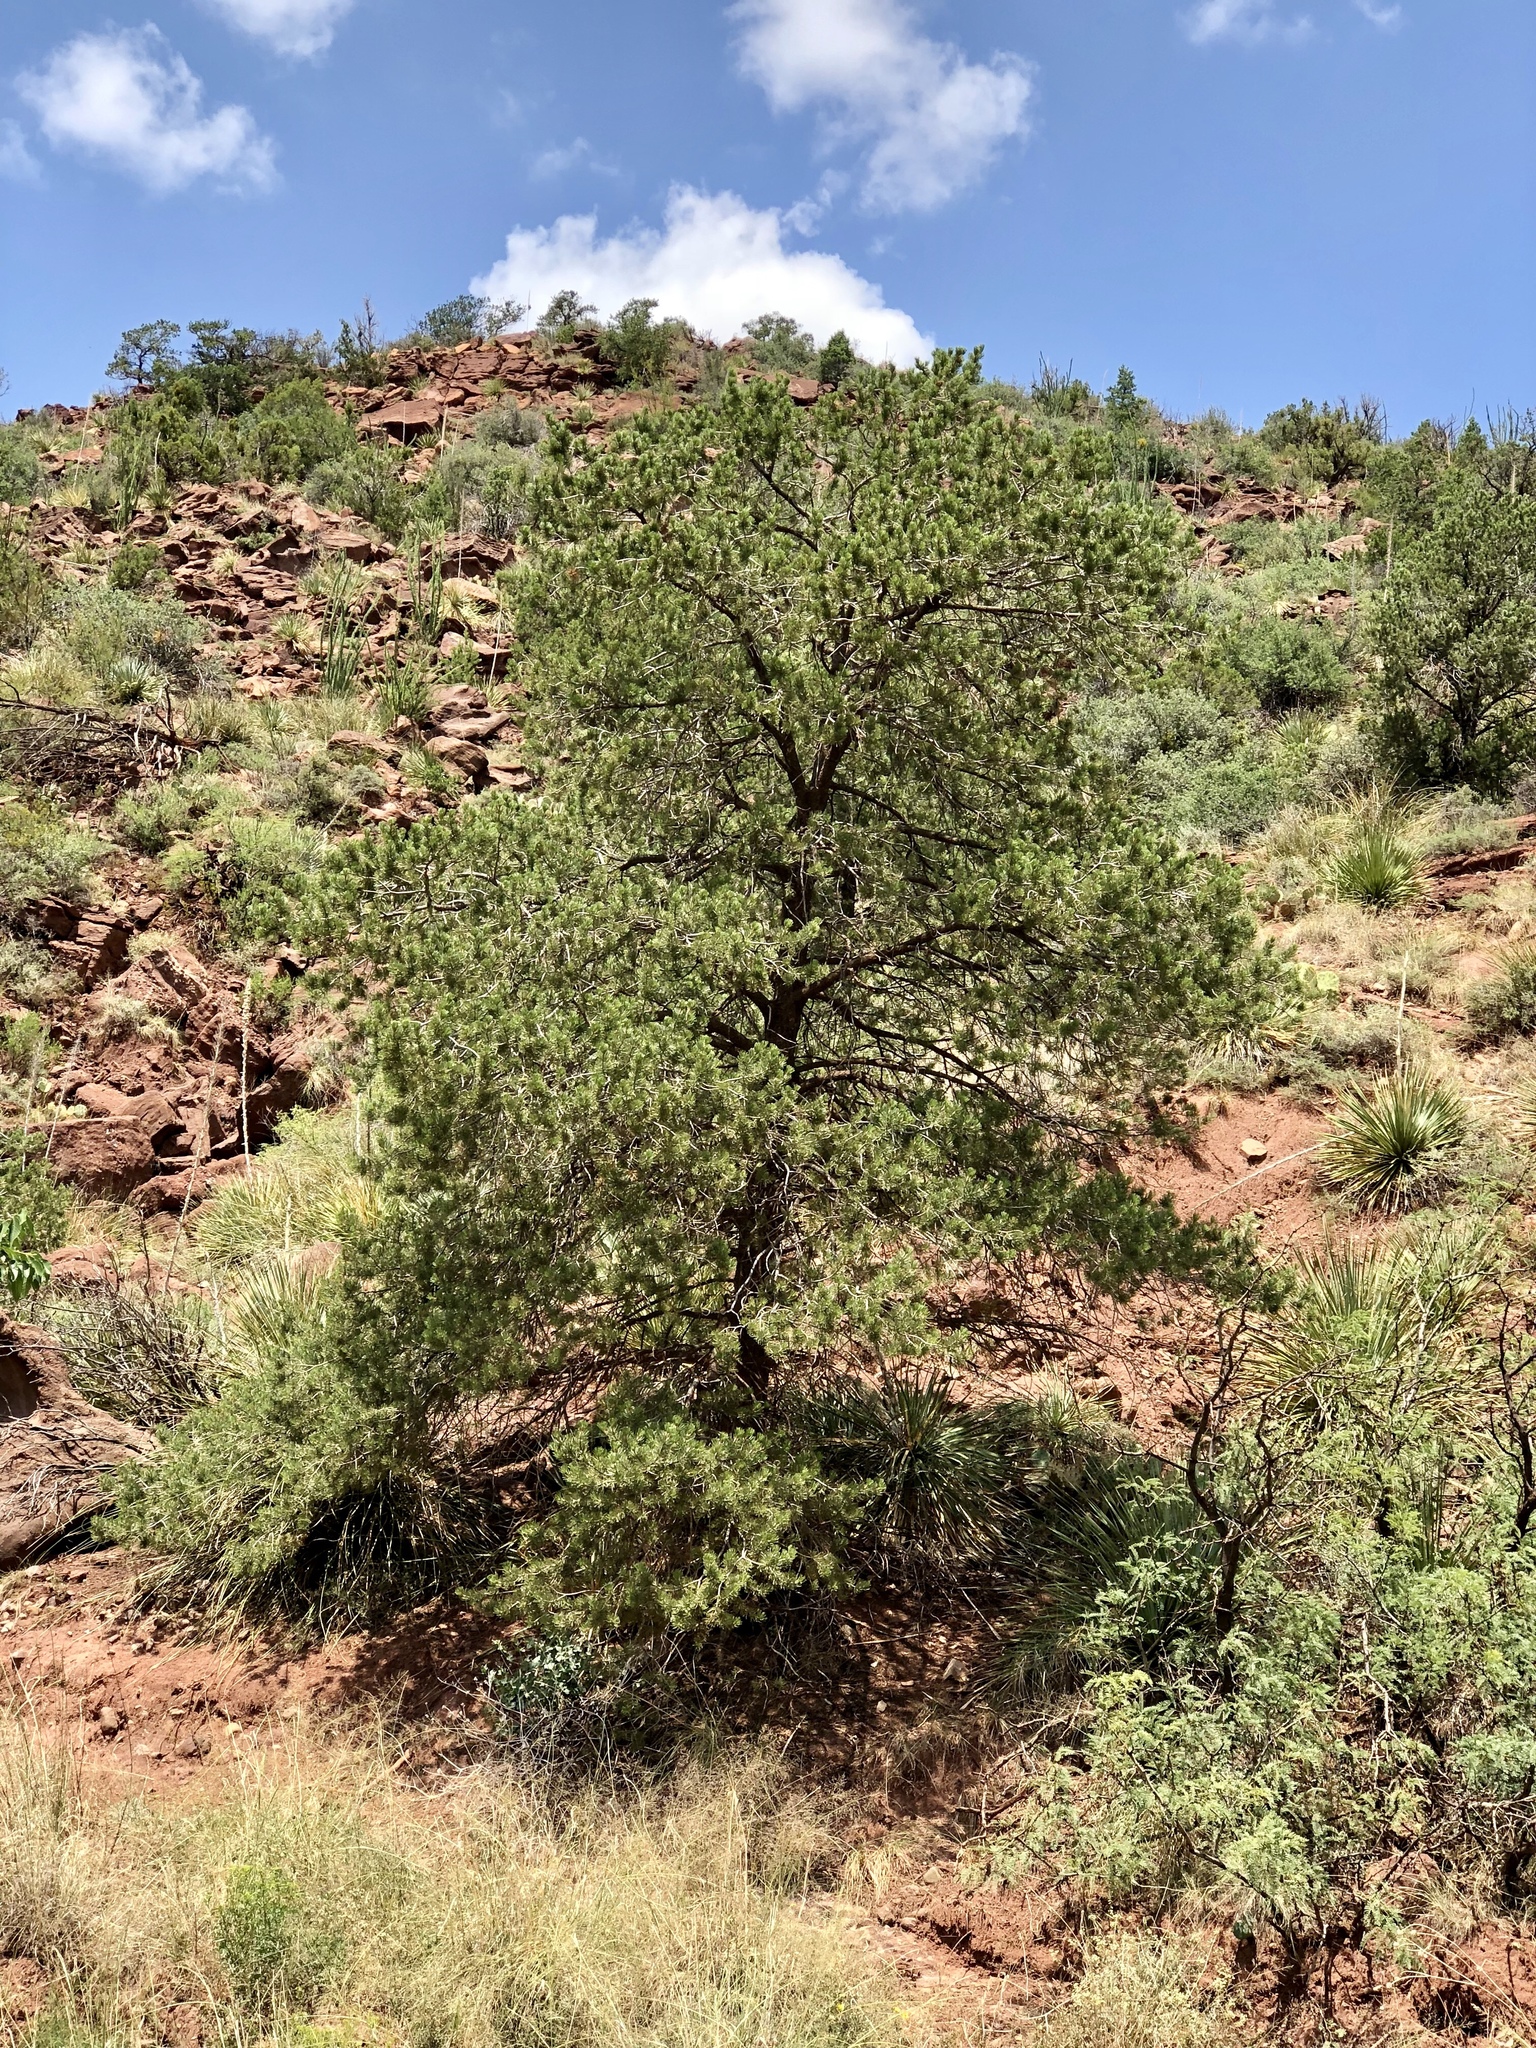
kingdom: Plantae
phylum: Tracheophyta
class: Pinopsida
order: Pinales
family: Pinaceae
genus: Pinus
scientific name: Pinus edulis
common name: Colorado pinyon
